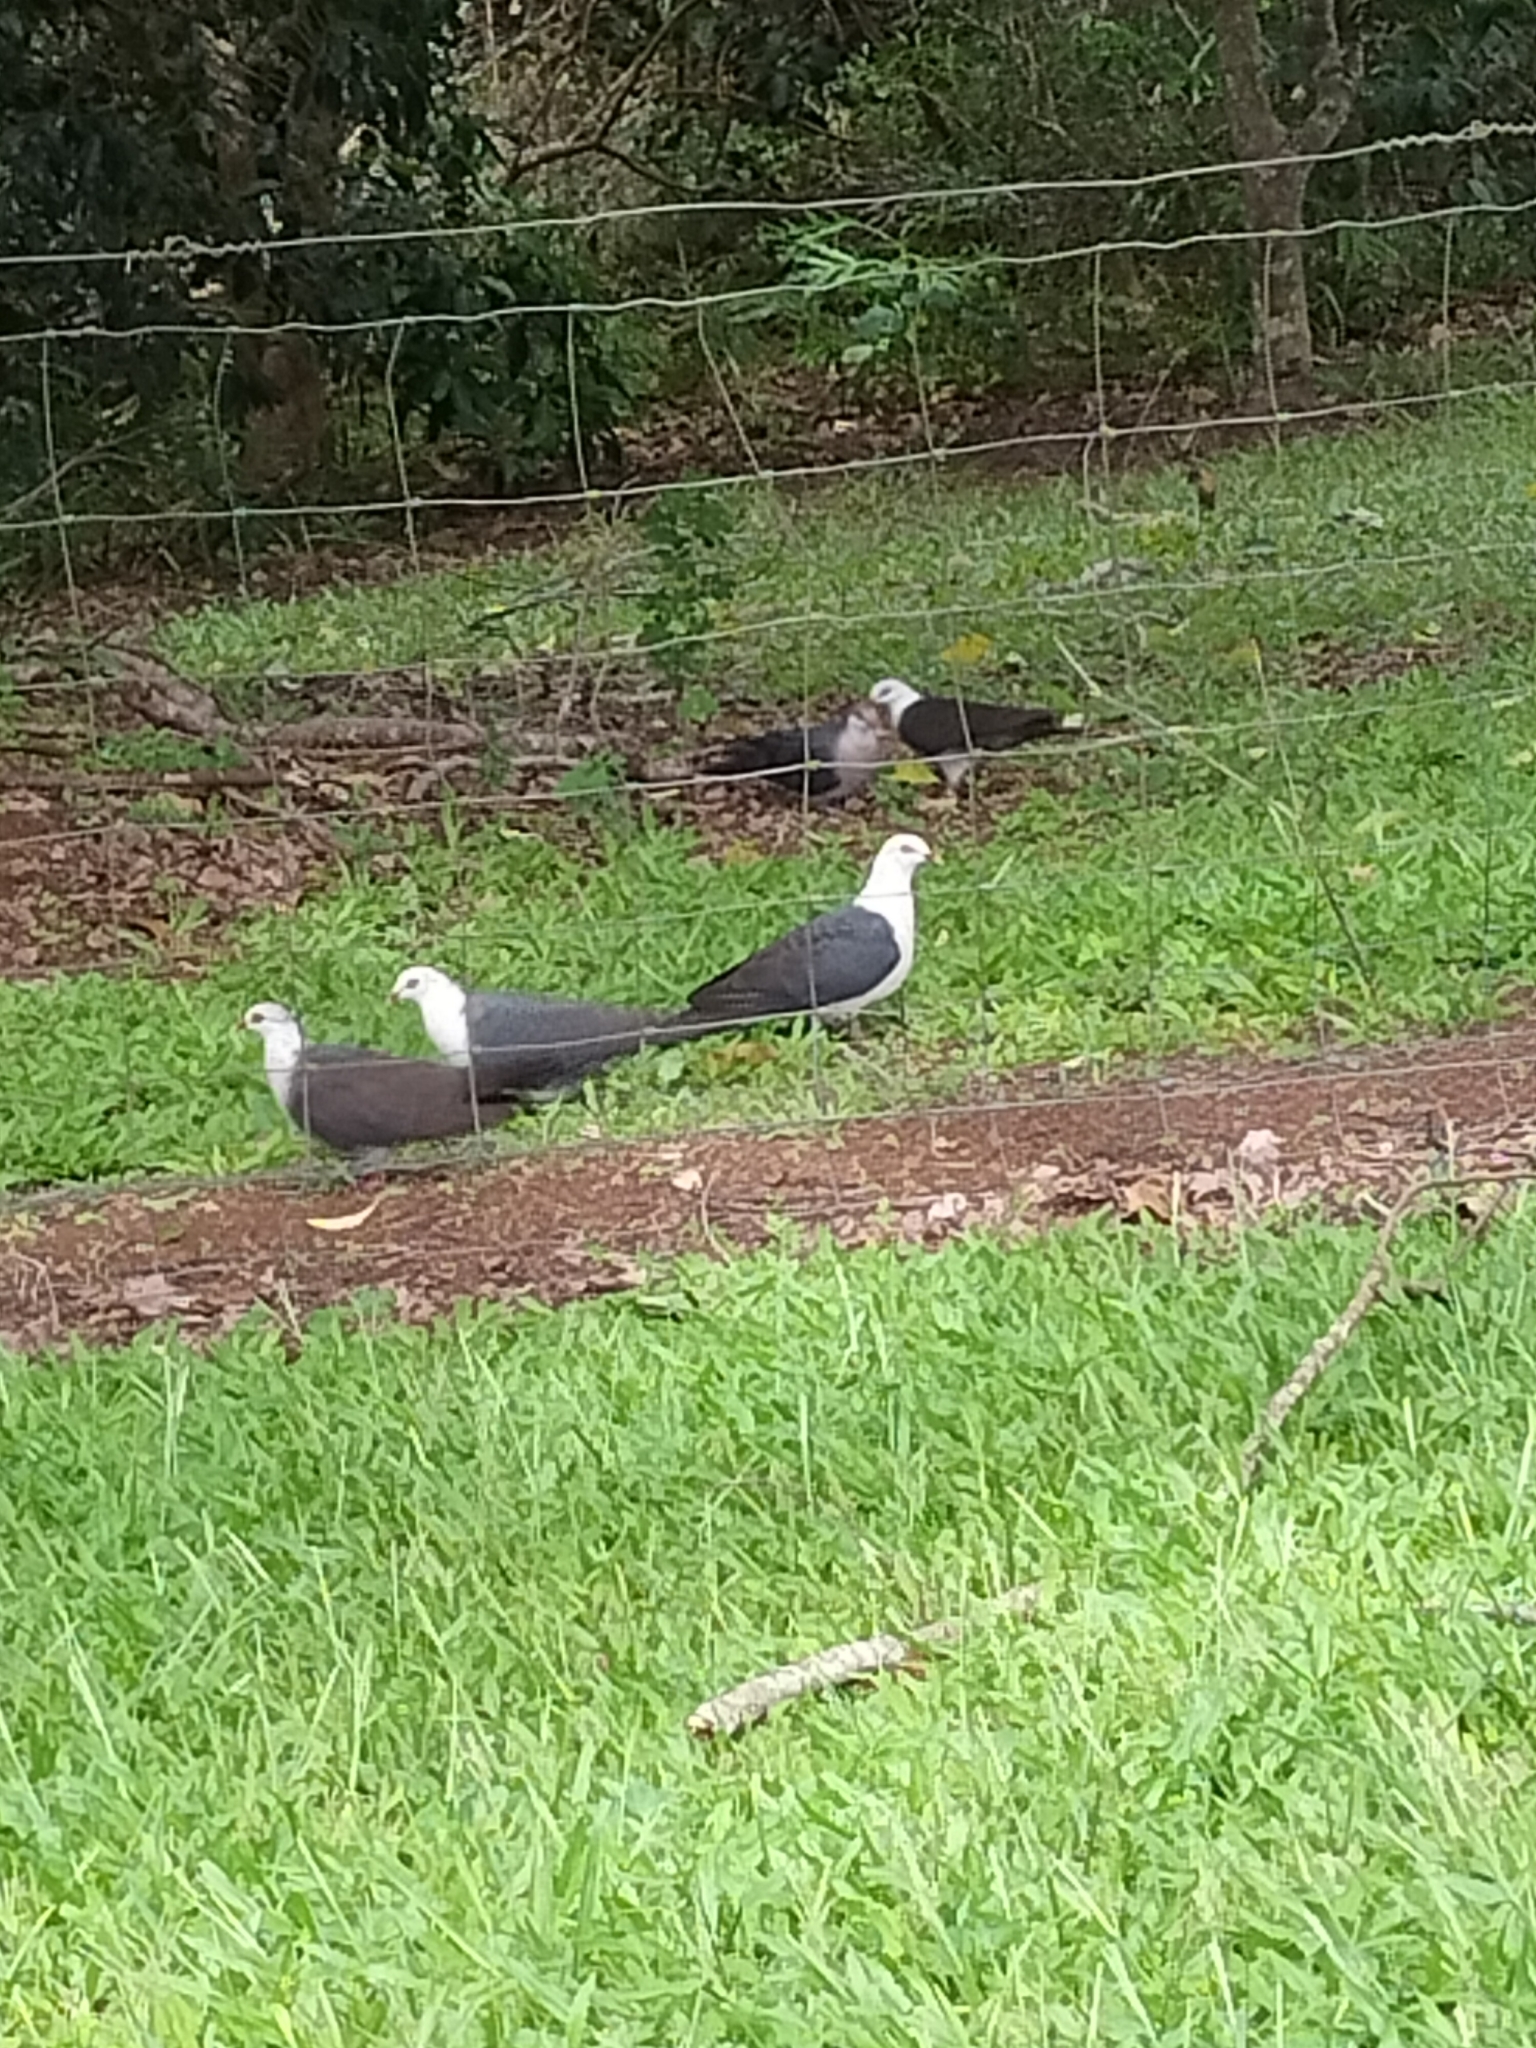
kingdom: Animalia
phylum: Chordata
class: Aves
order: Columbiformes
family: Columbidae
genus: Columba
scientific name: Columba leucomela
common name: White-headed pigeon
